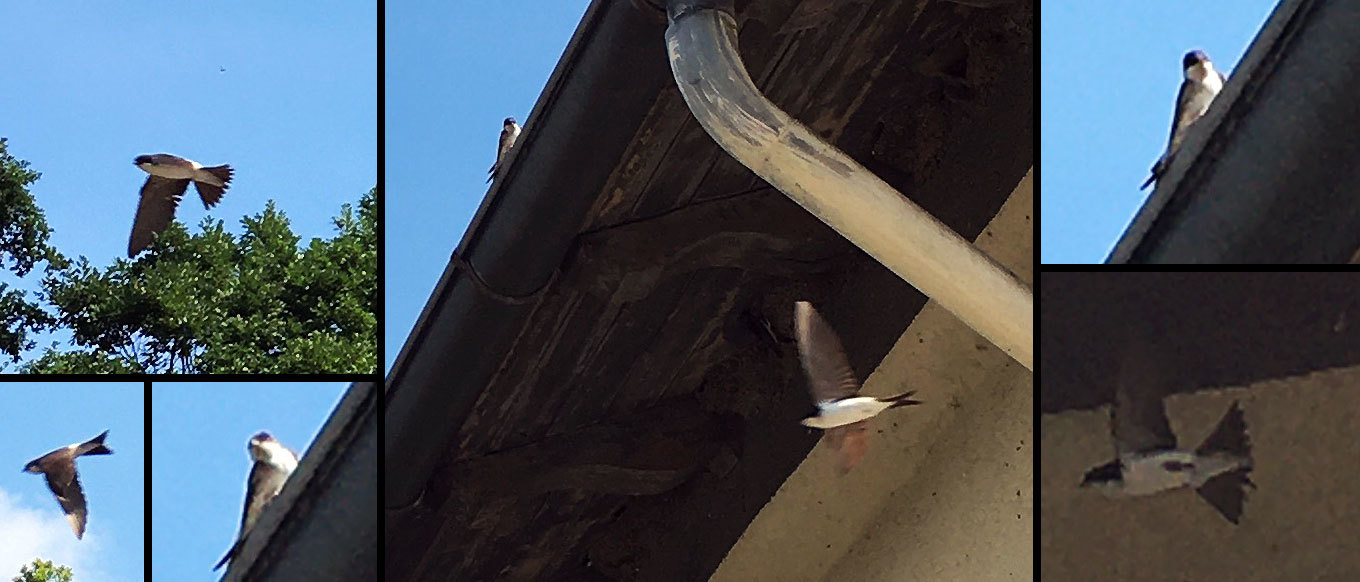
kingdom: Animalia
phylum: Chordata
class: Aves
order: Passeriformes
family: Hirundinidae
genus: Delichon
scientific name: Delichon urbicum
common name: Common house martin
